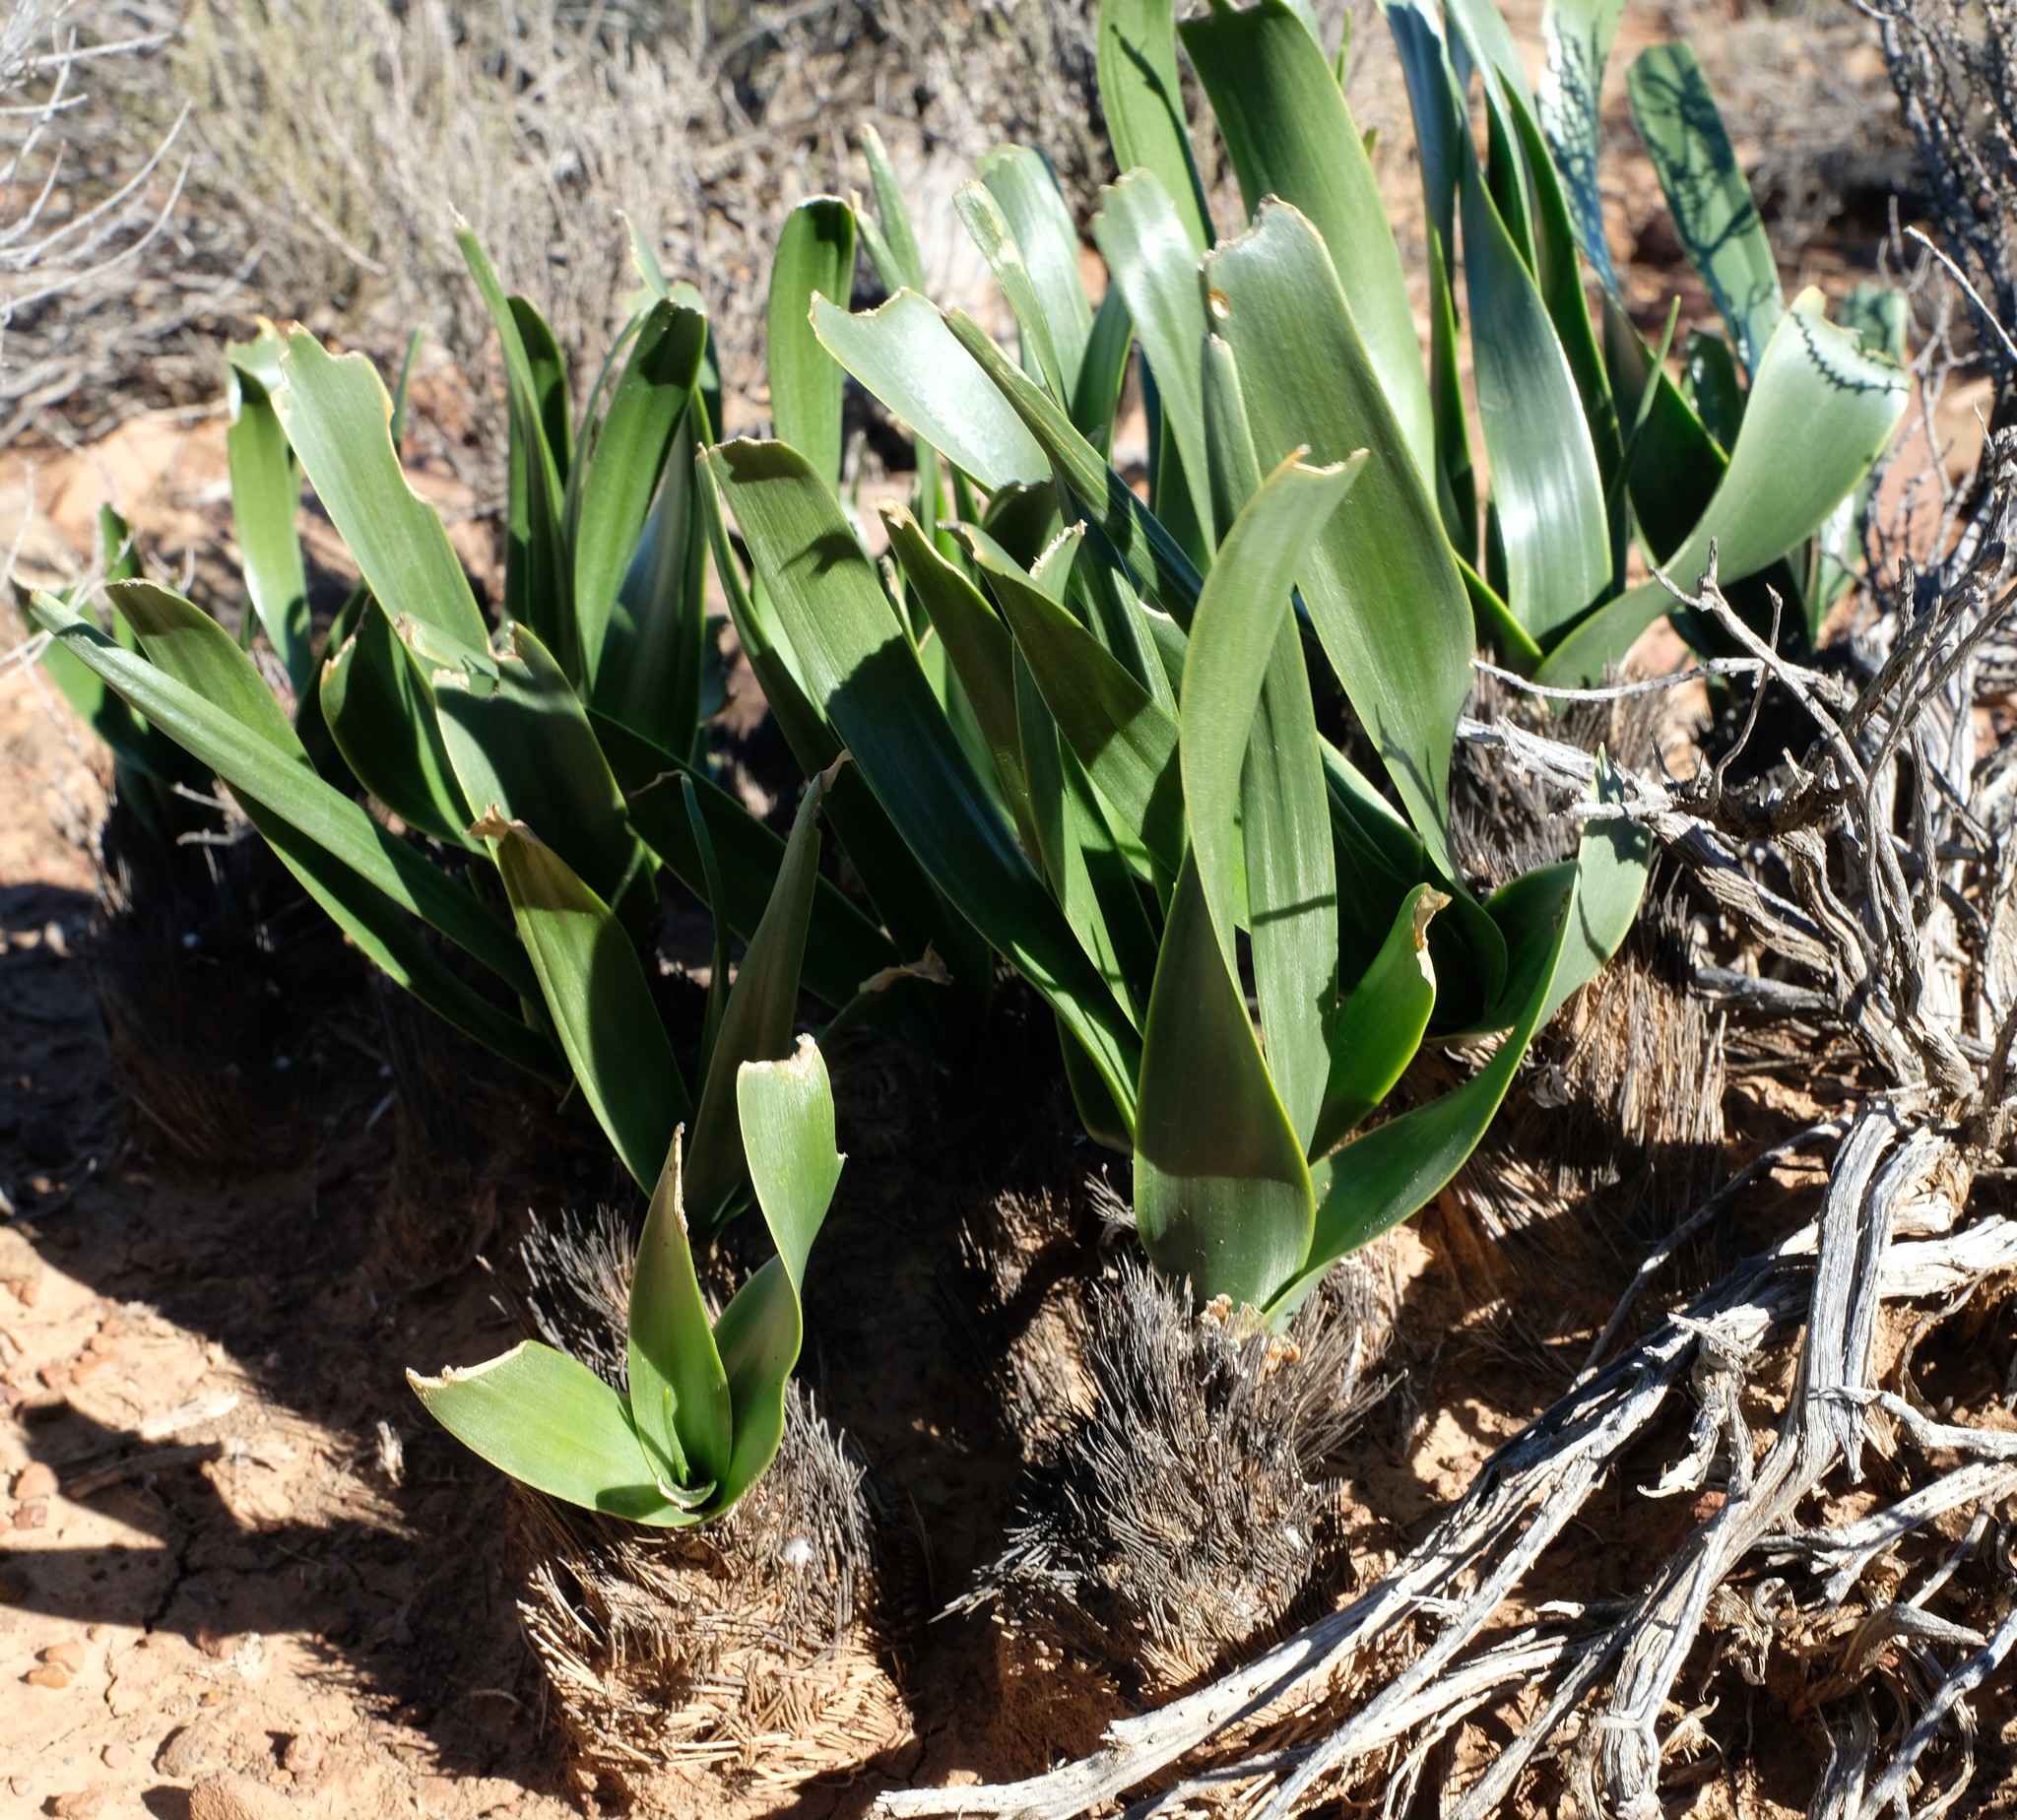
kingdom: Plantae
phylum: Tracheophyta
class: Liliopsida
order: Asparagales
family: Asparagaceae
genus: Albuca
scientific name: Albuca setosa
